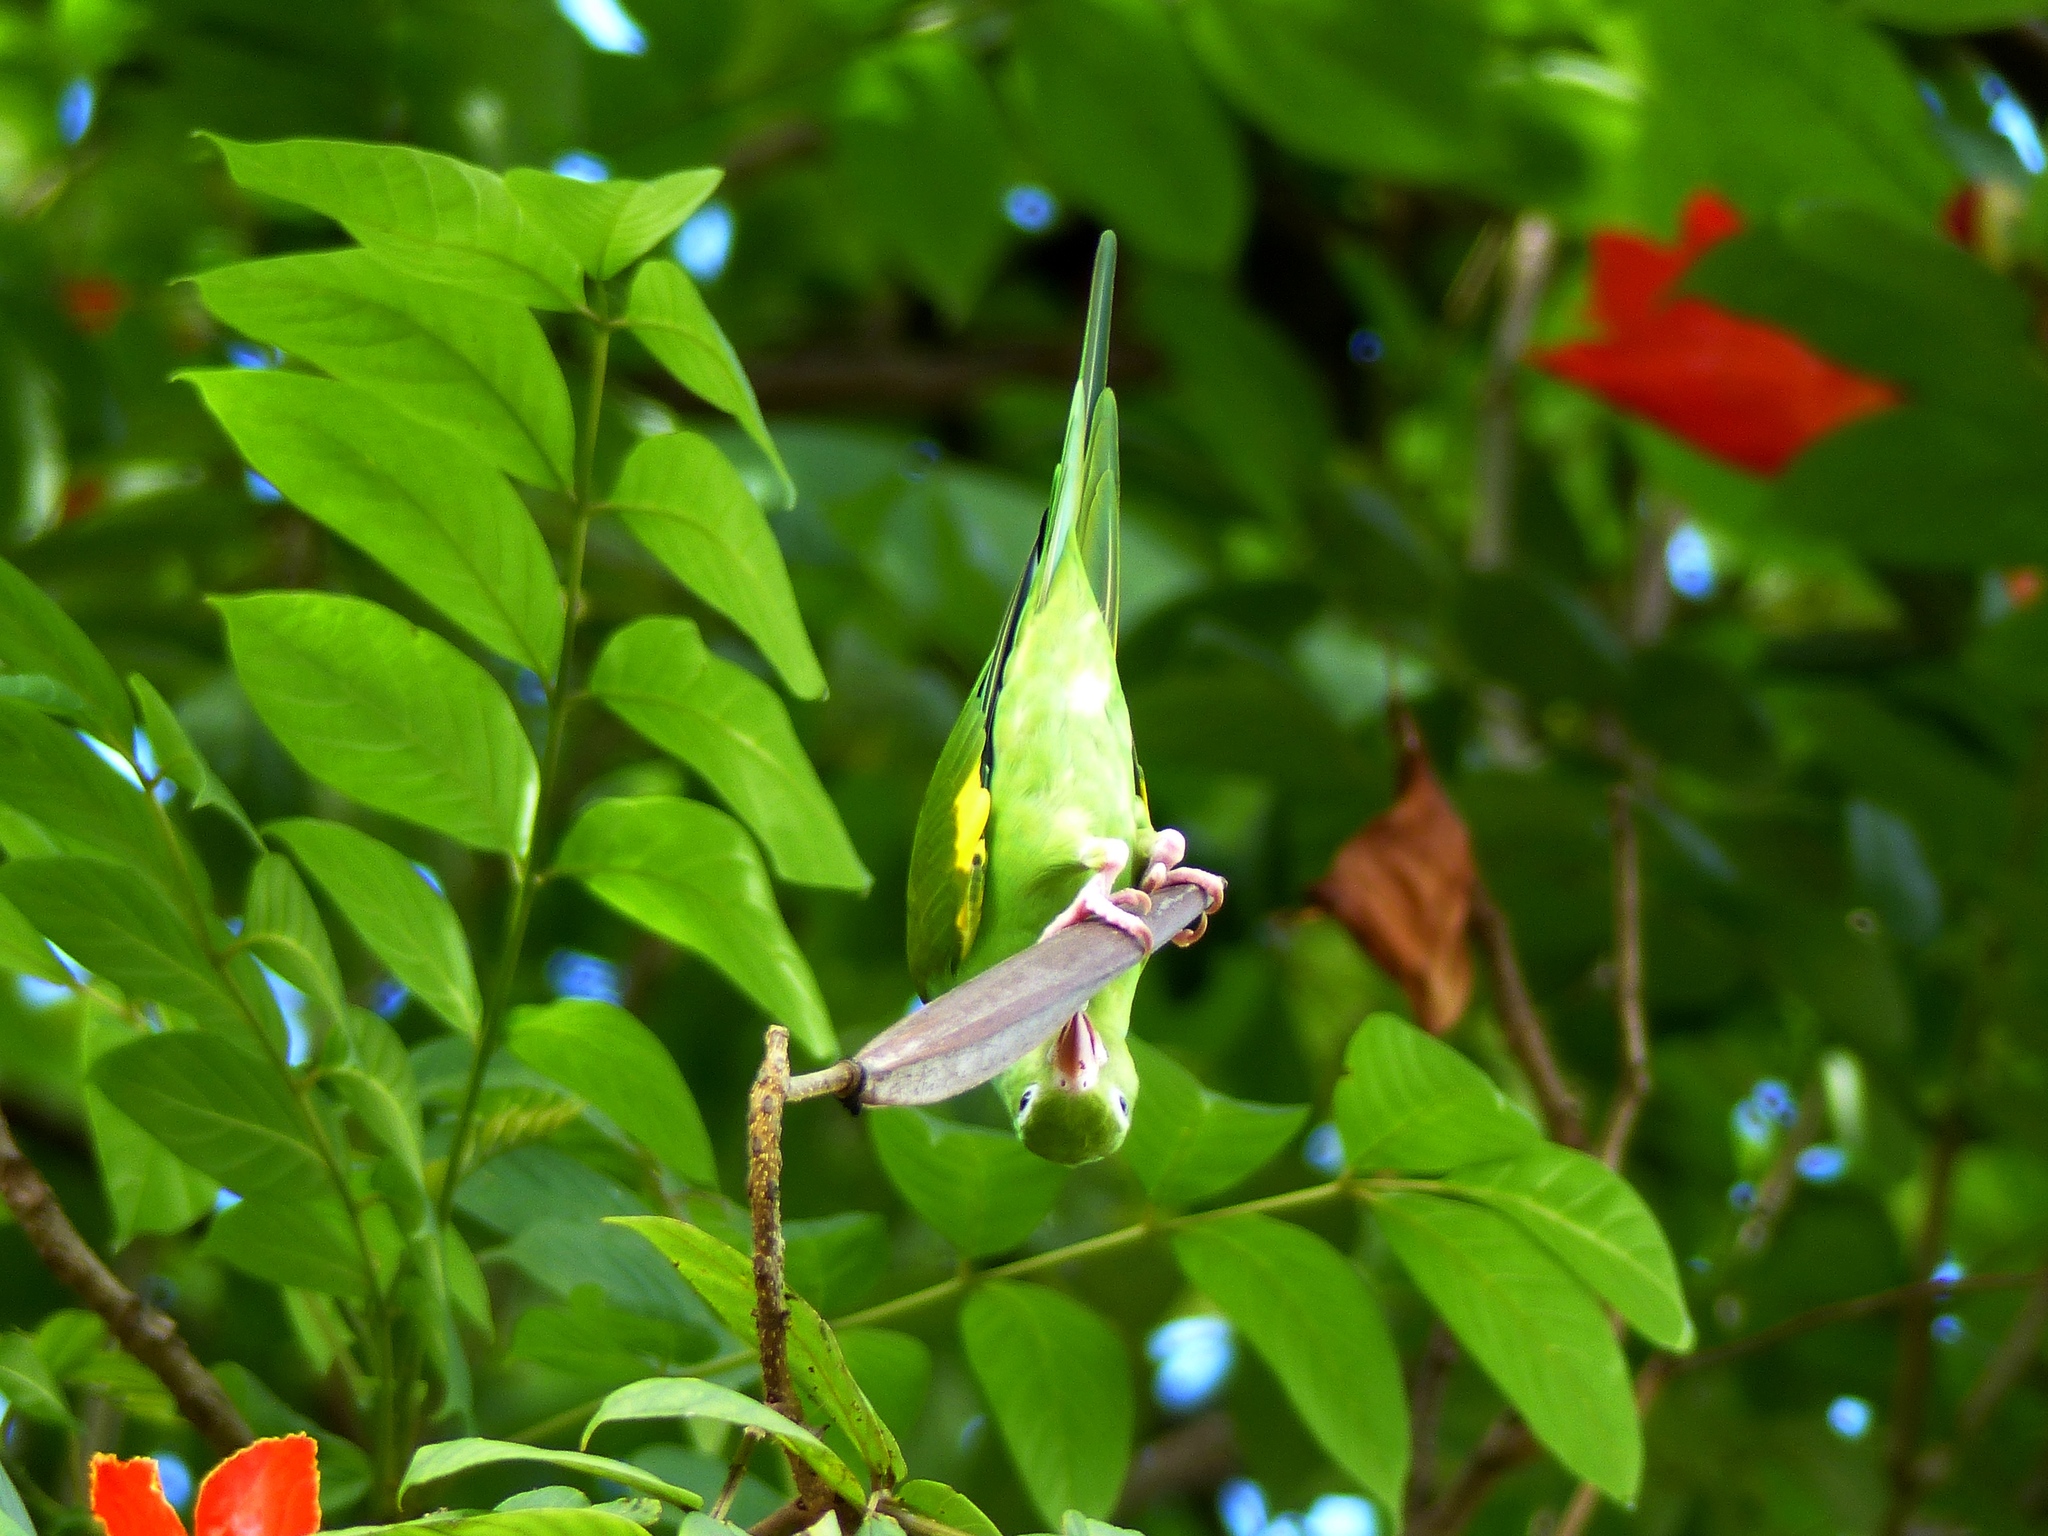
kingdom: Animalia
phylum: Chordata
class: Aves
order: Psittaciformes
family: Psittacidae
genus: Brotogeris
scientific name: Brotogeris chiriri
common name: Yellow-chevroned parakeet
